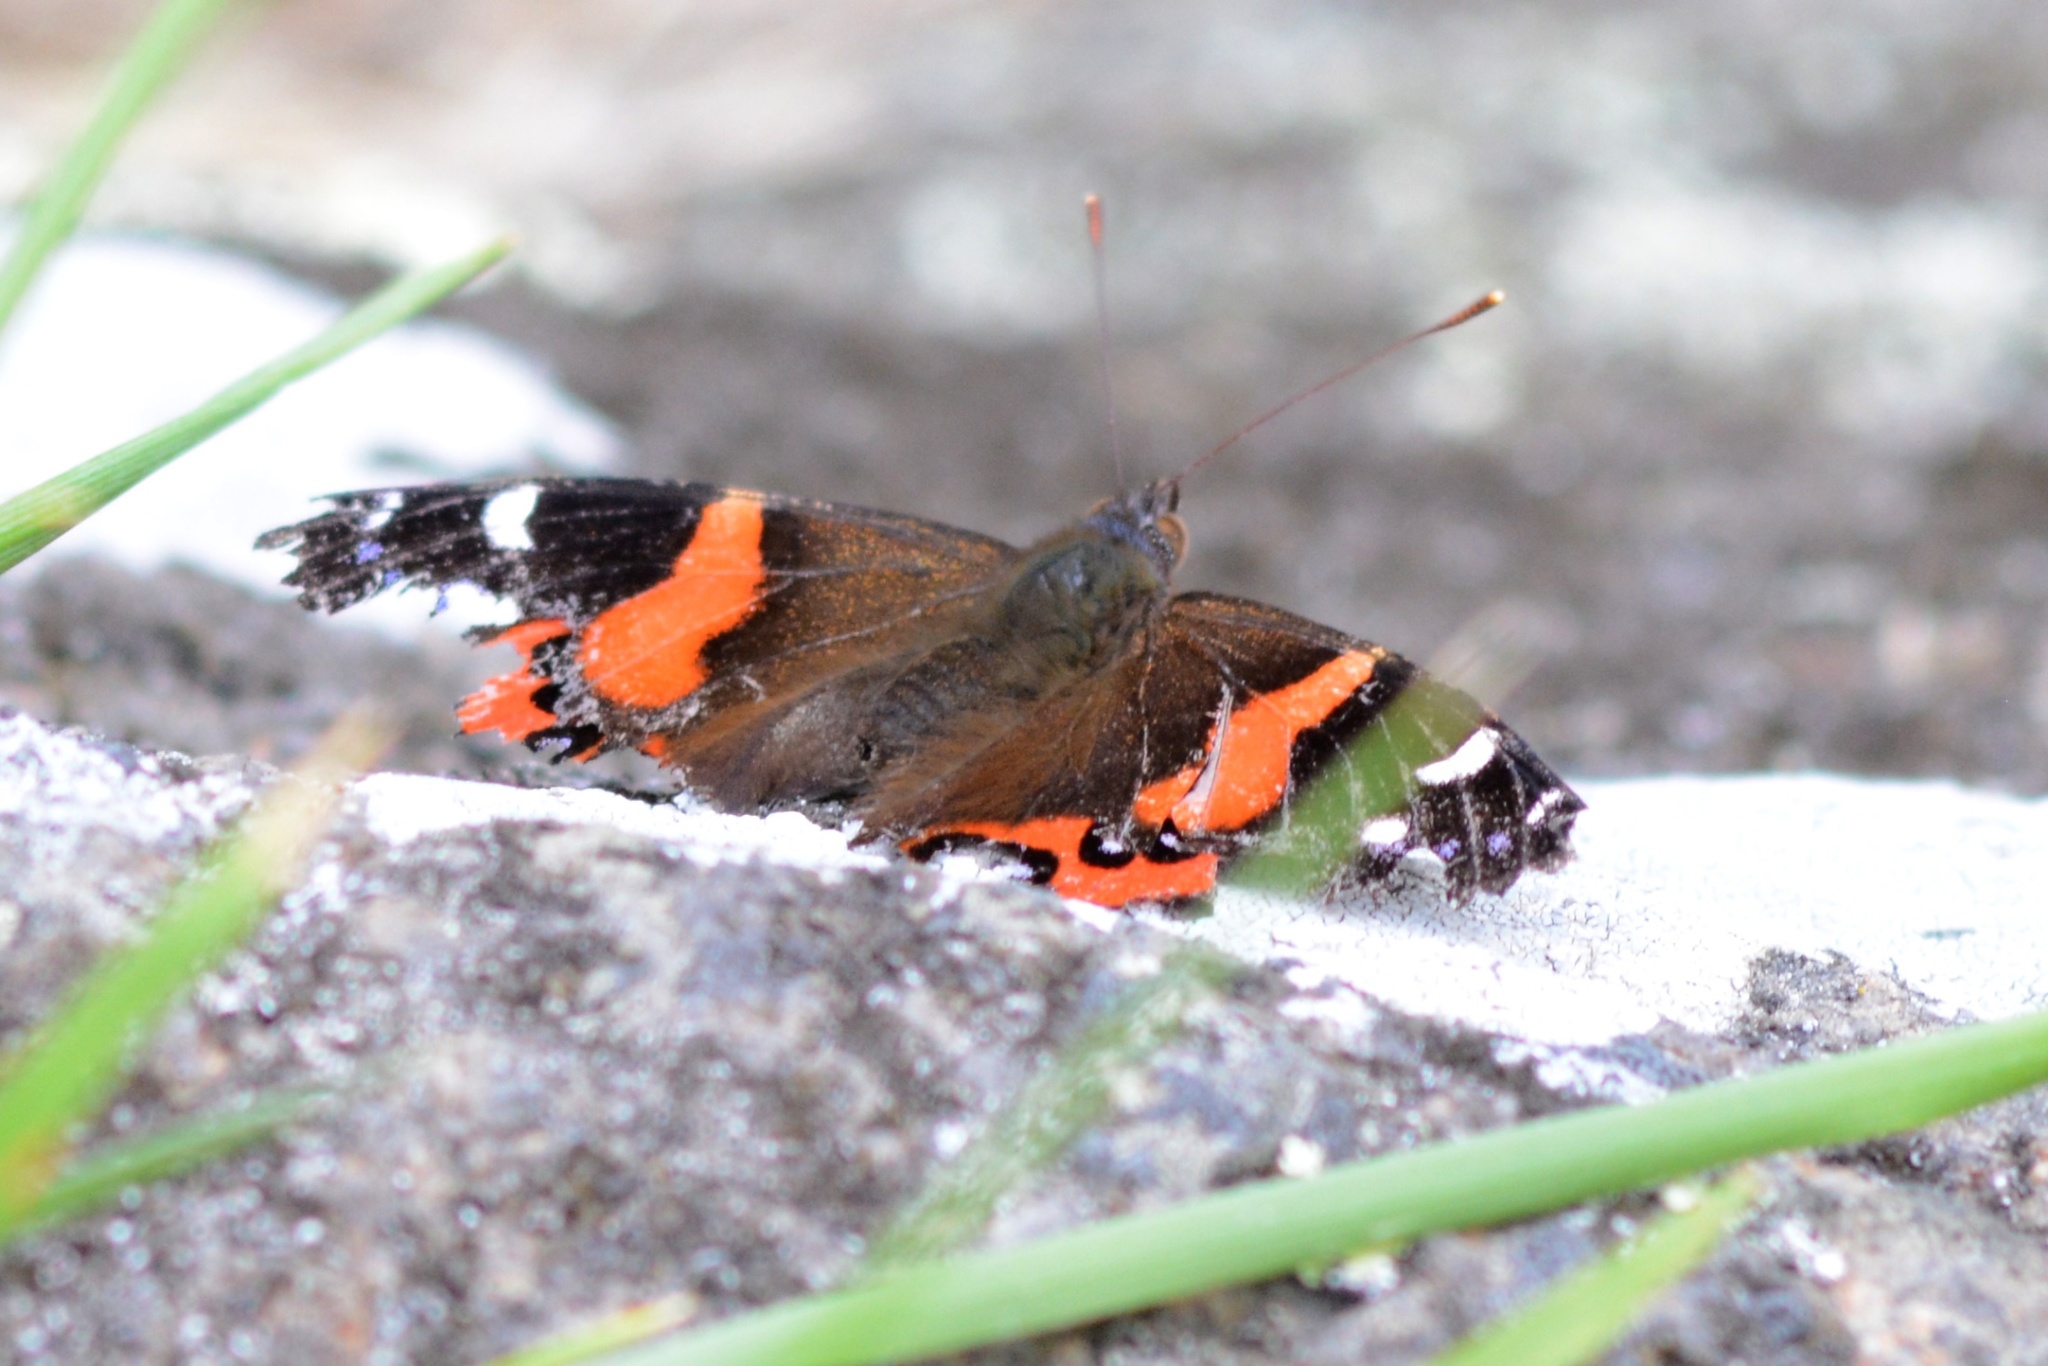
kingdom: Animalia
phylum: Arthropoda
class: Insecta
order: Lepidoptera
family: Nymphalidae
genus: Vanessa
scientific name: Vanessa gonerilla
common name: New zealand red admiral
